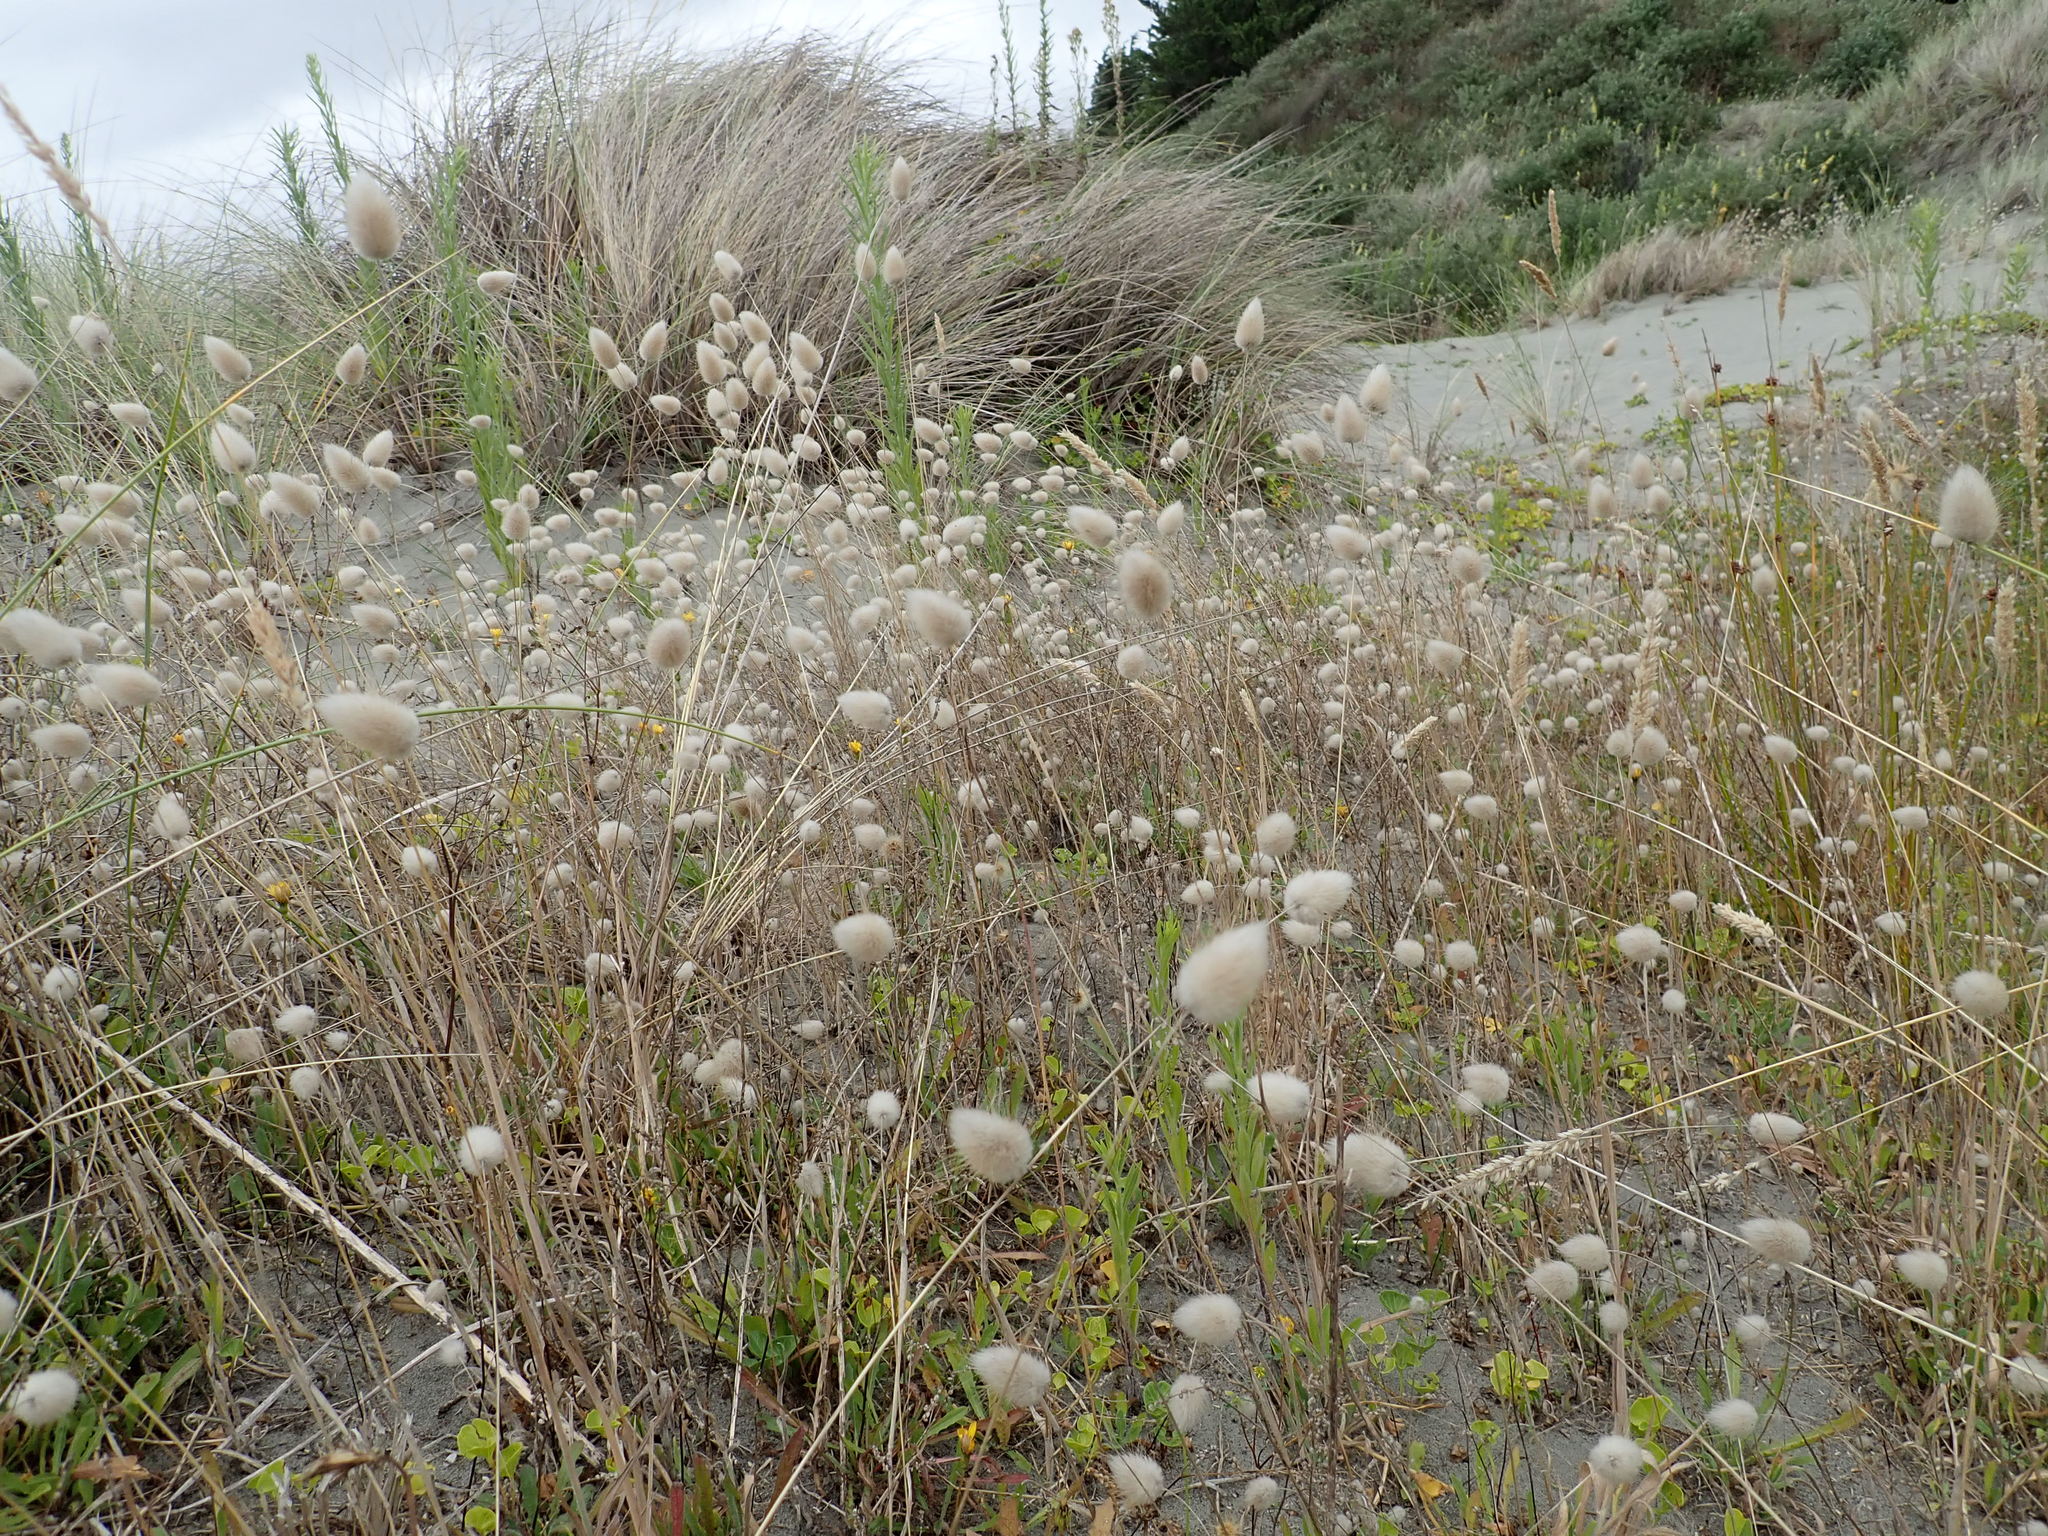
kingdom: Plantae
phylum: Tracheophyta
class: Liliopsida
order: Poales
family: Poaceae
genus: Lagurus
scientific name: Lagurus ovatus
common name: Hare's-tail
